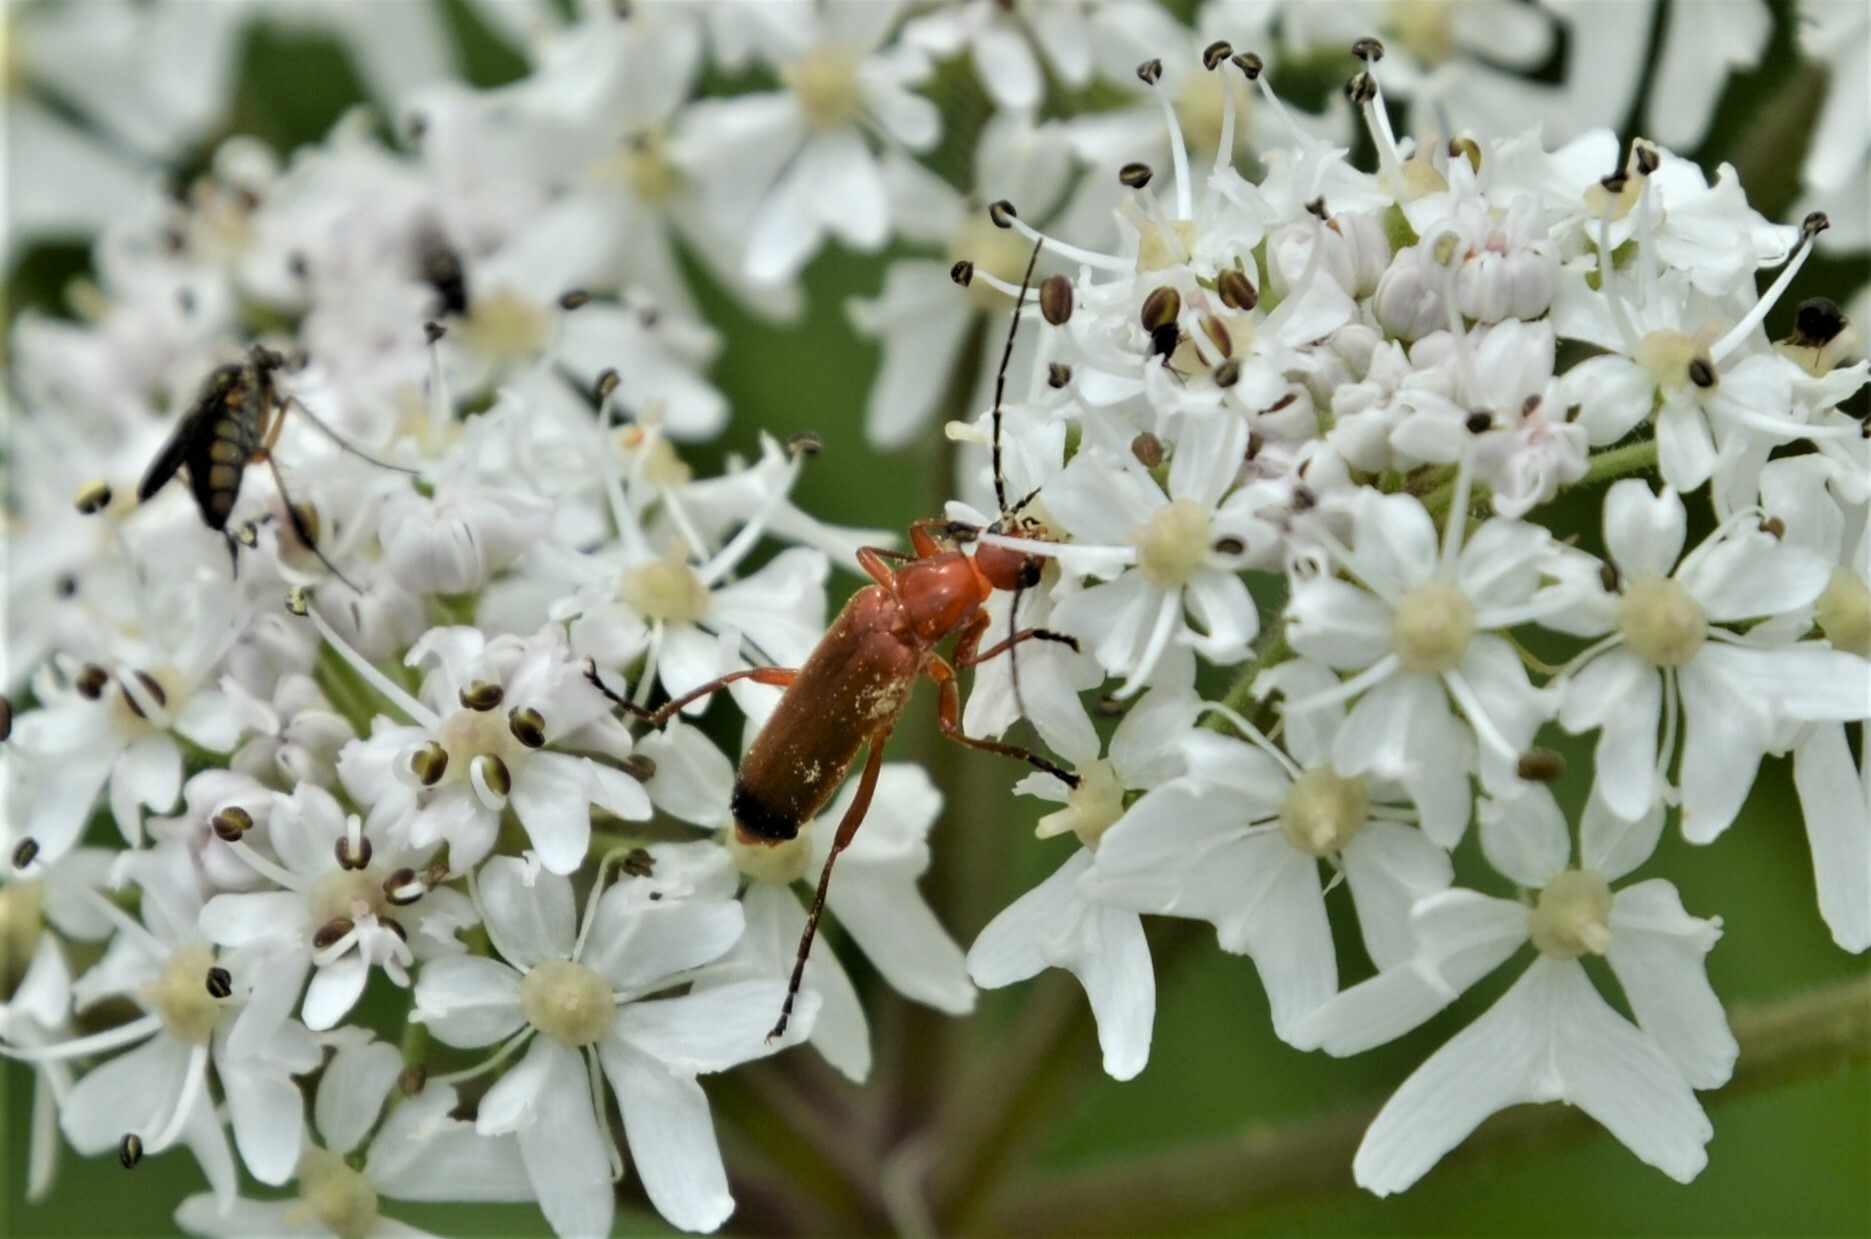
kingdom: Animalia
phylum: Arthropoda
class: Insecta
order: Coleoptera
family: Cantharidae
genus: Rhagonycha
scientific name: Rhagonycha fulva
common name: Common red soldier beetle
